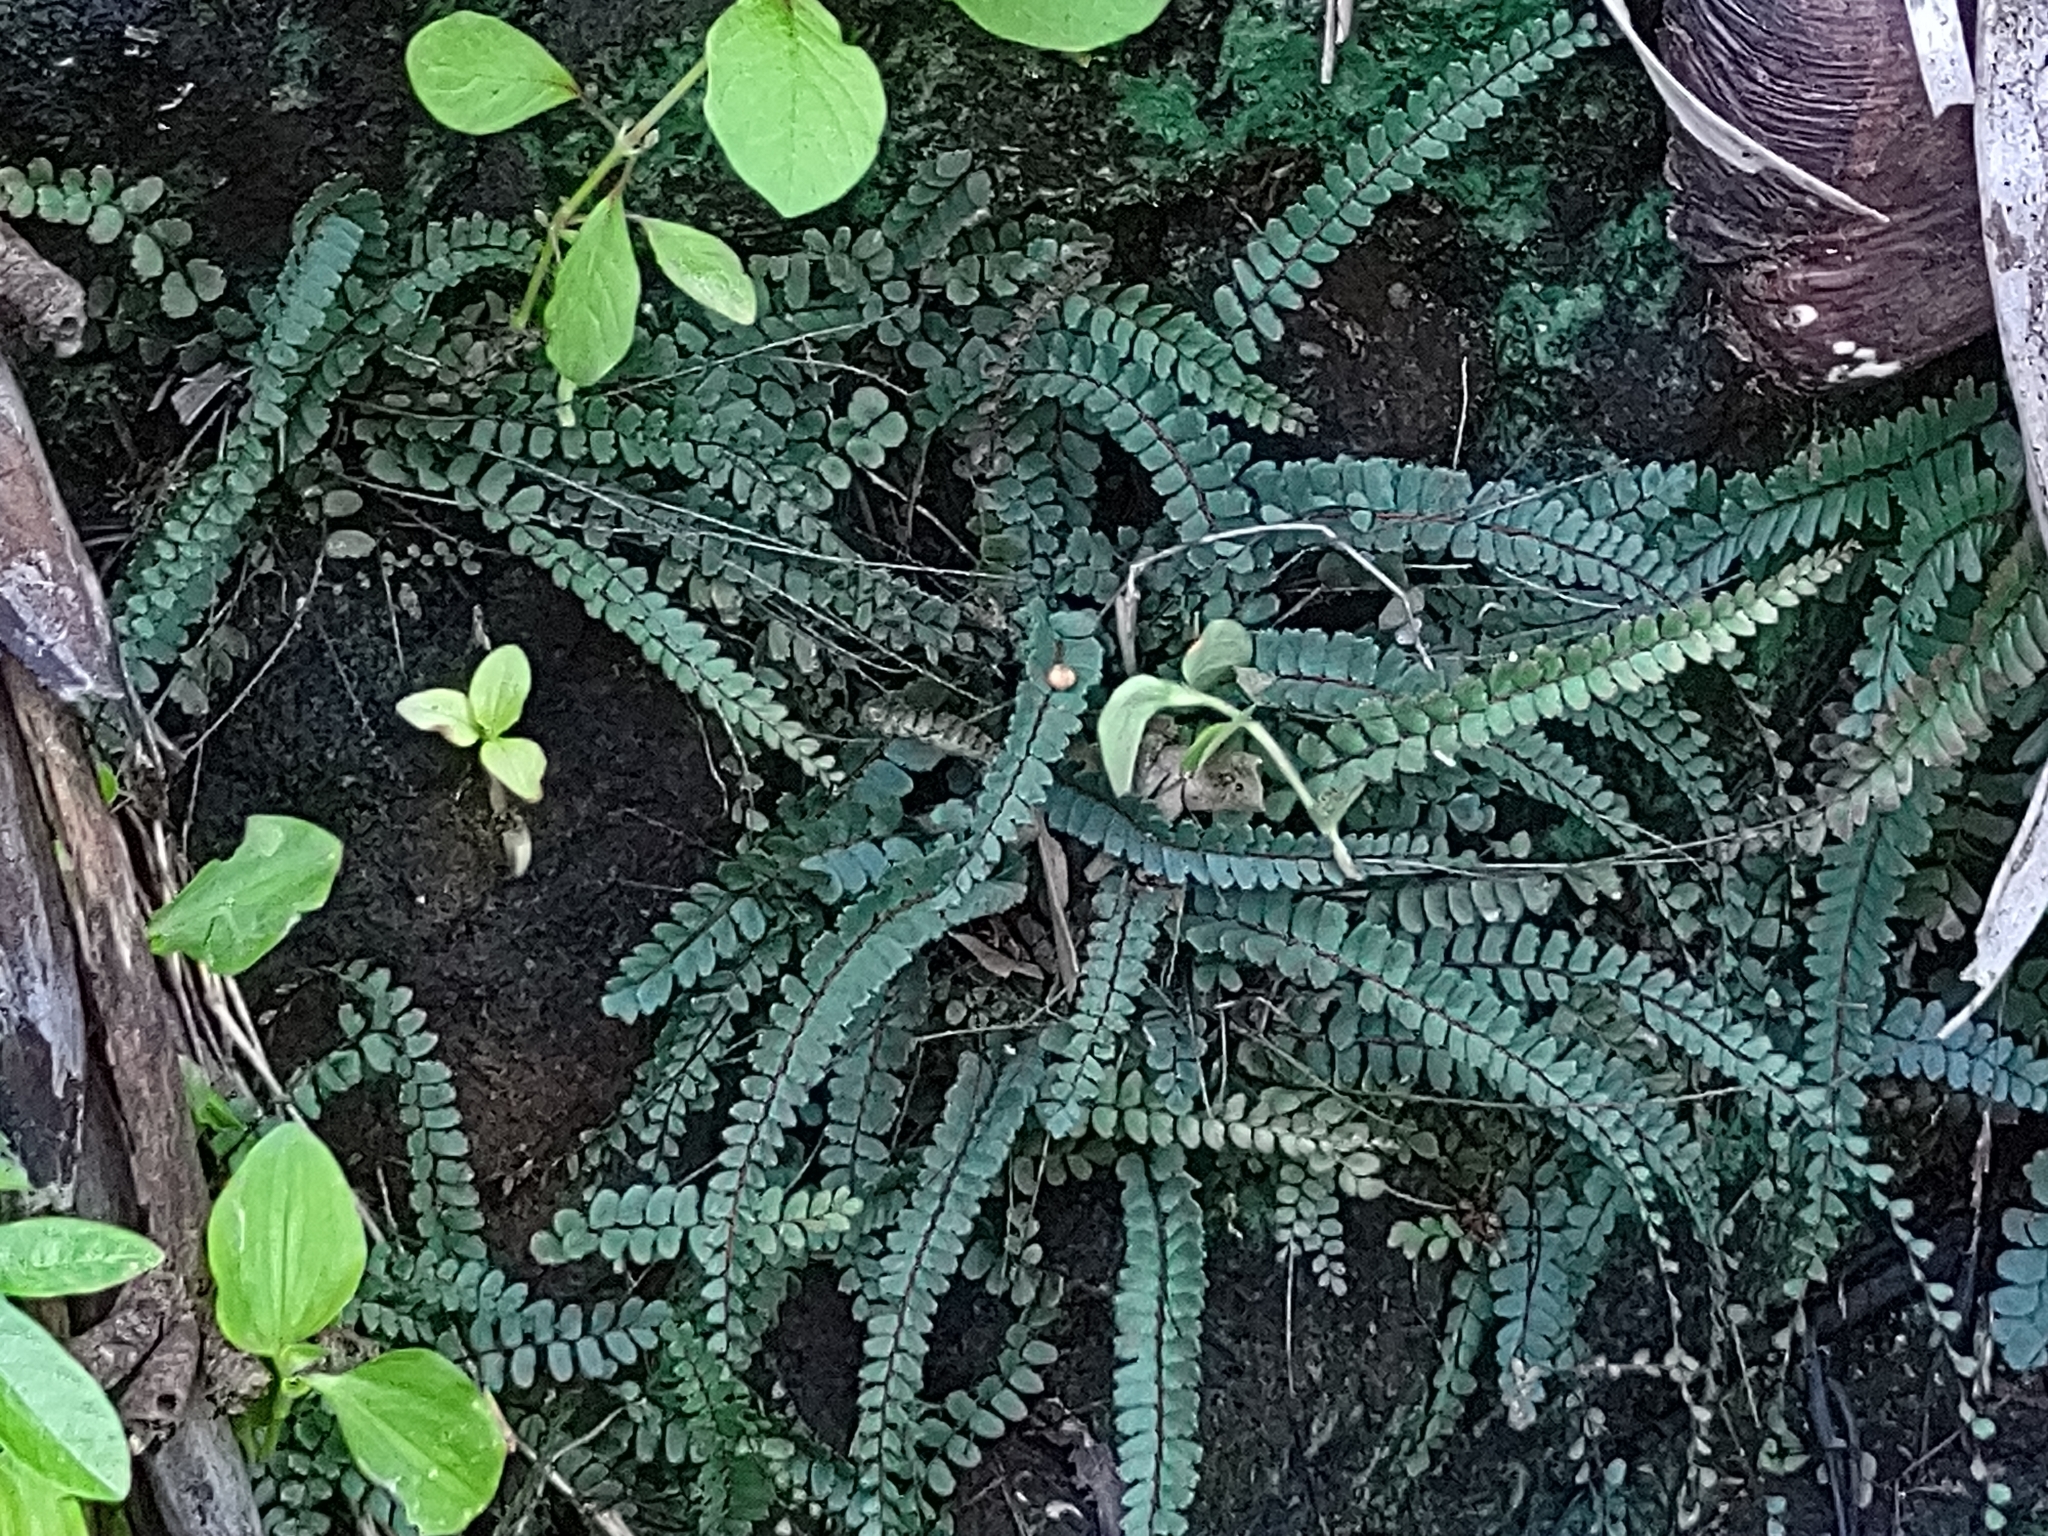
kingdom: Plantae
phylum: Tracheophyta
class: Polypodiopsida
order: Polypodiales
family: Pteridaceae
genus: Adiantum
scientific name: Adiantum rhizophorum
